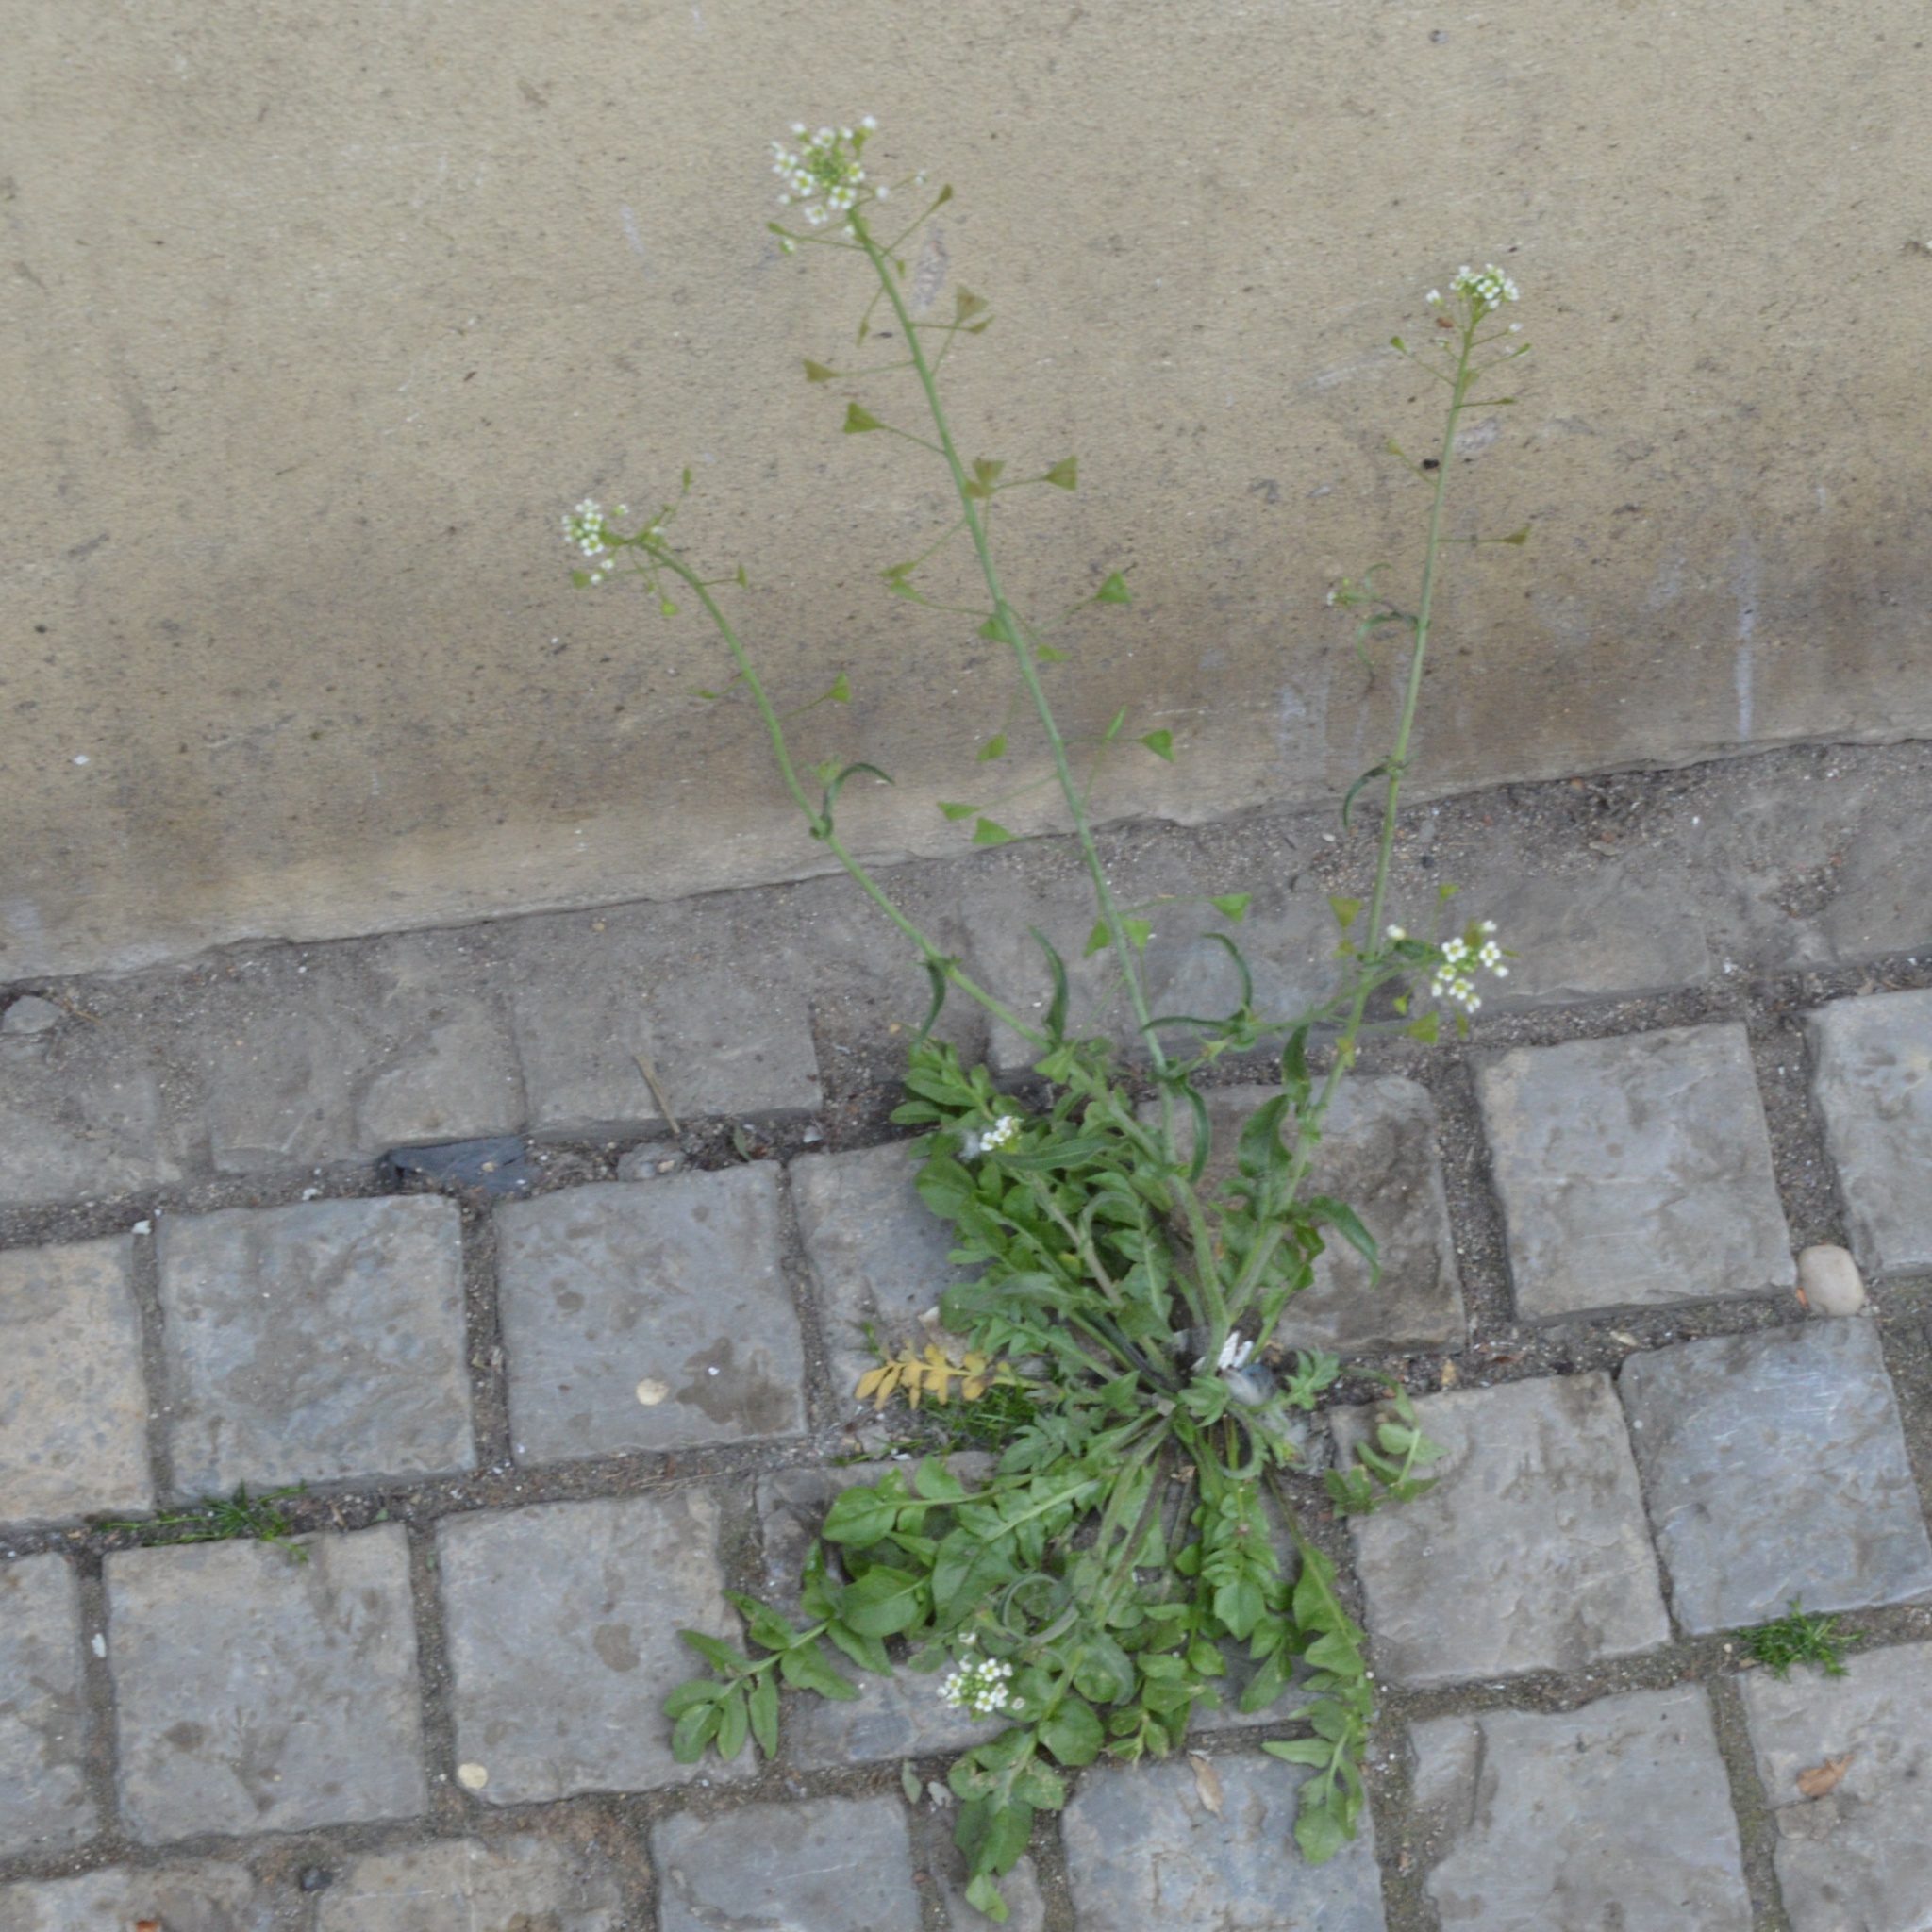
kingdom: Plantae
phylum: Tracheophyta
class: Magnoliopsida
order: Brassicales
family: Brassicaceae
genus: Capsella
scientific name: Capsella bursa-pastoris
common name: Shepherd's purse
